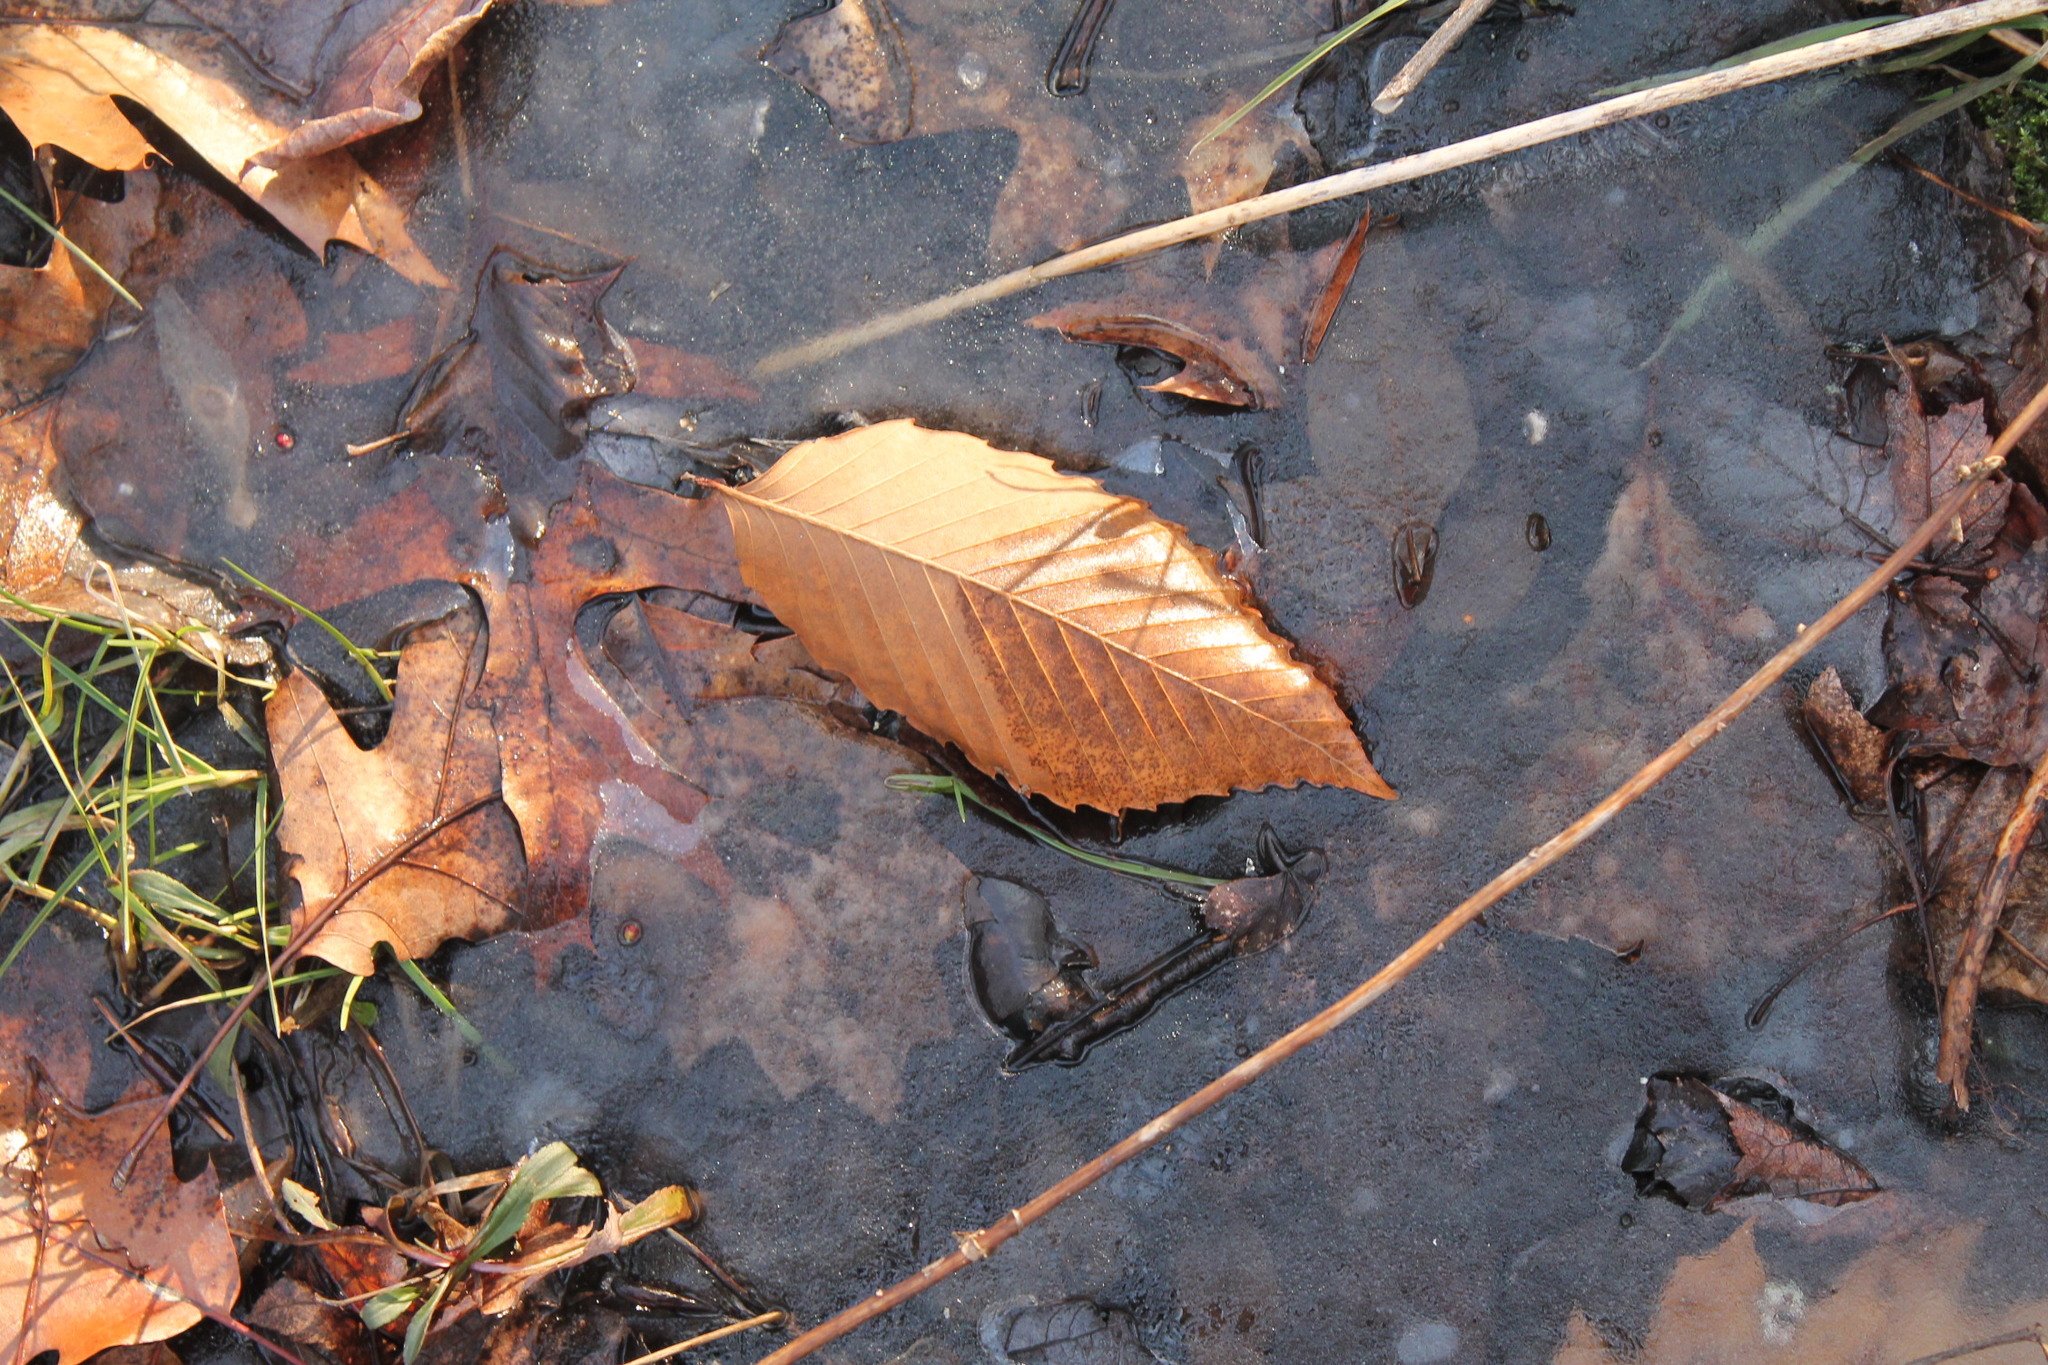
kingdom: Plantae
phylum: Tracheophyta
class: Magnoliopsida
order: Fagales
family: Fagaceae
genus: Fagus
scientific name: Fagus grandifolia
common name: American beech
